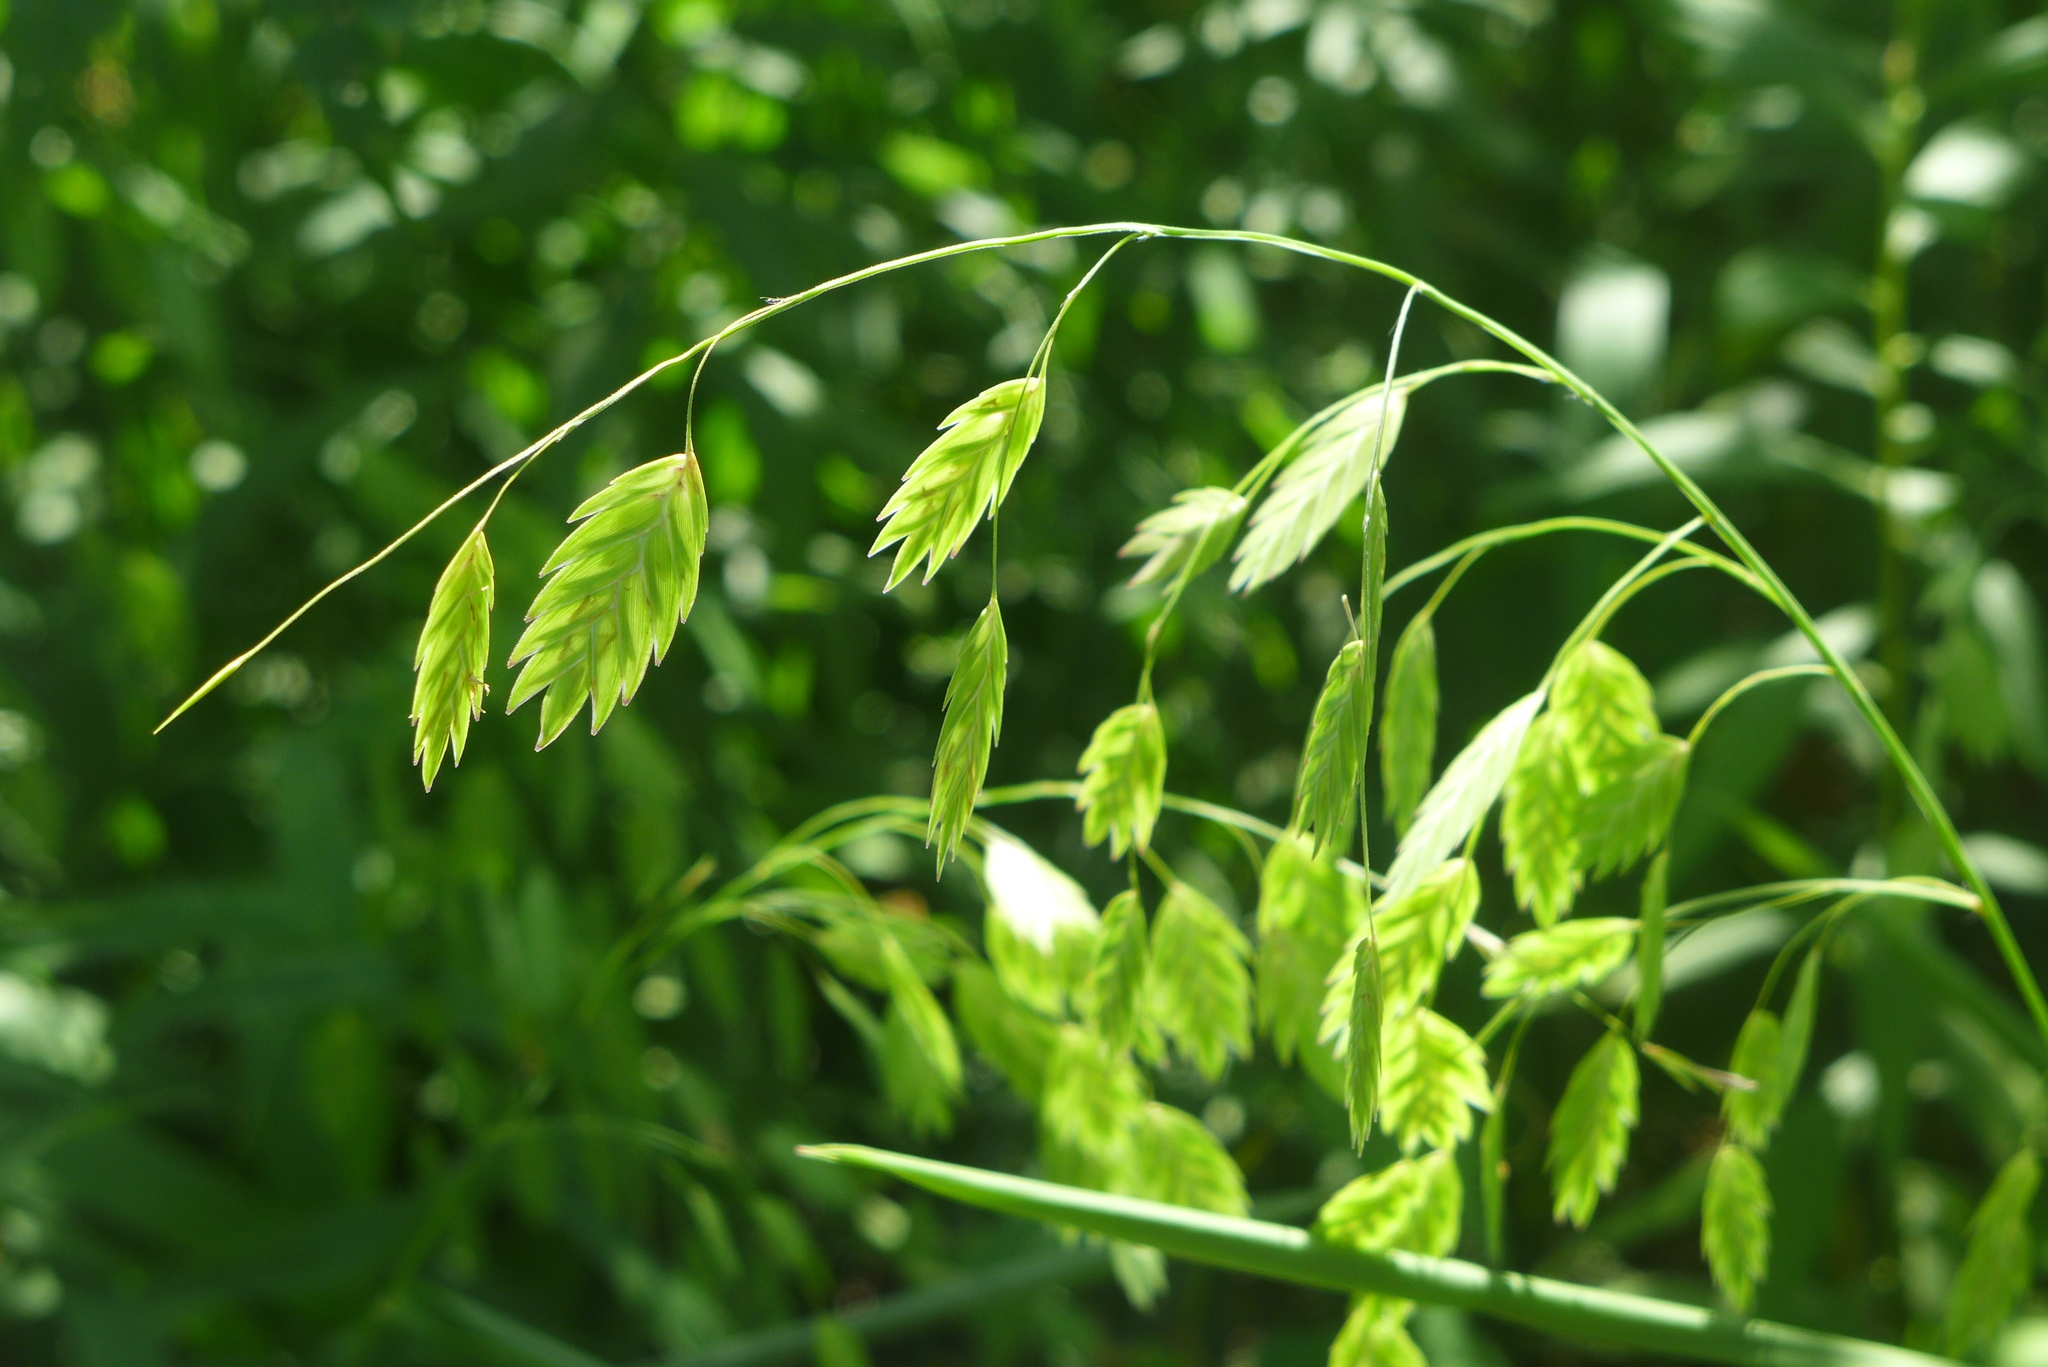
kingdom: Plantae
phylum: Tracheophyta
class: Liliopsida
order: Poales
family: Poaceae
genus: Chasmanthium
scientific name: Chasmanthium latifolium
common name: Broad-leaved chasmanthium
